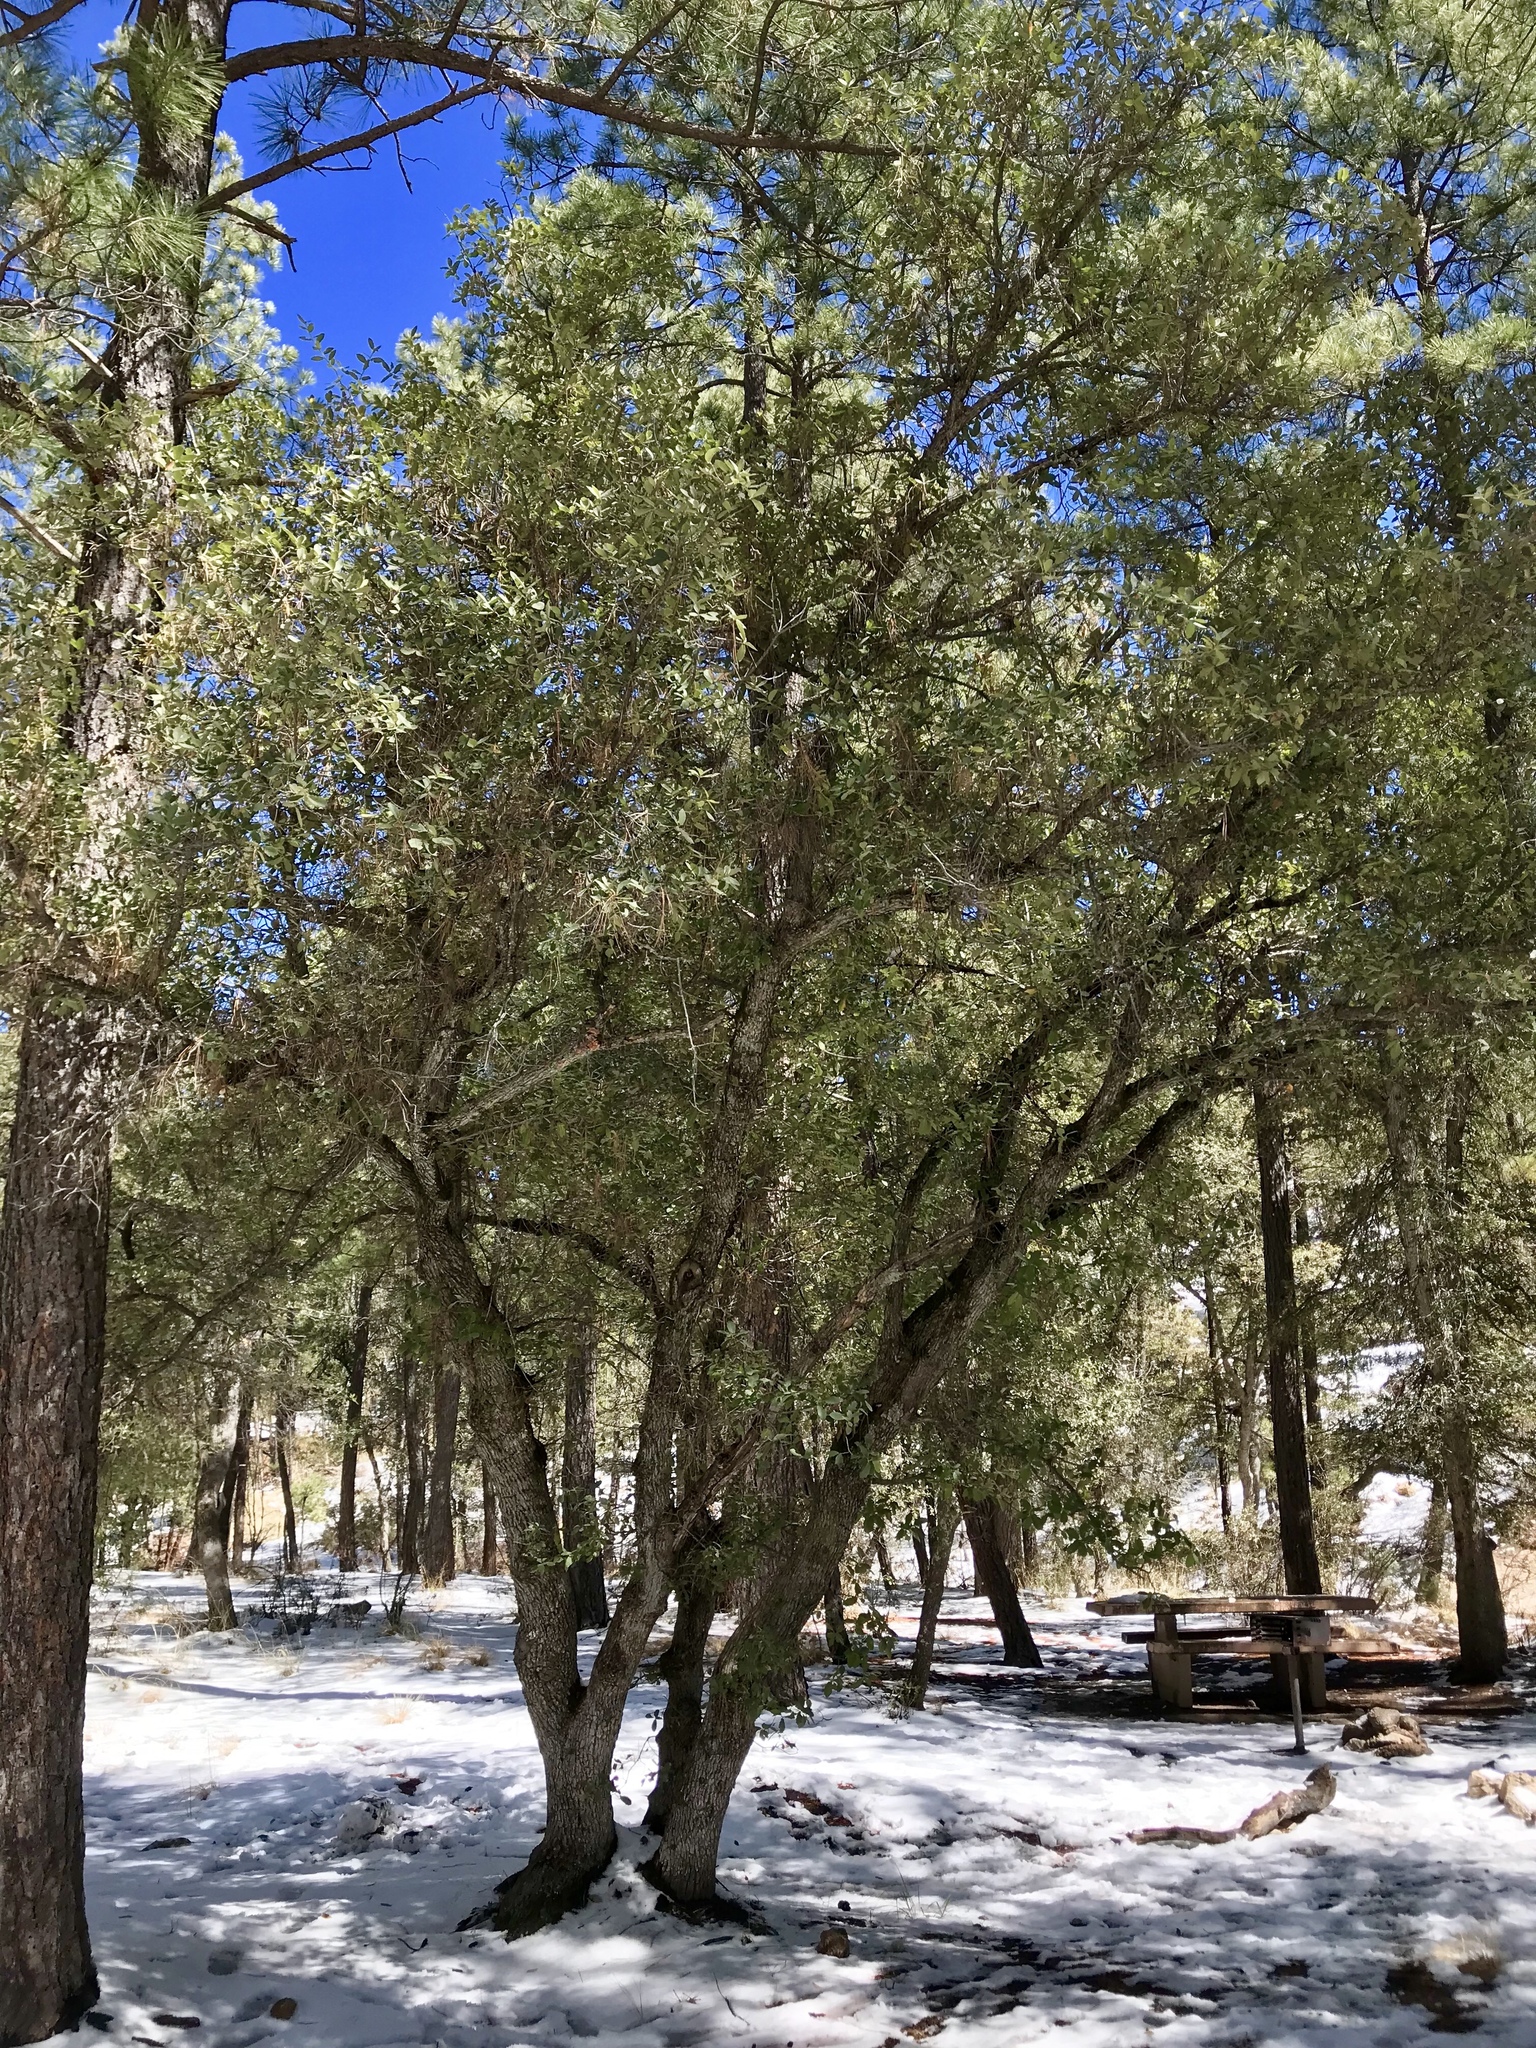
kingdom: Plantae
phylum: Tracheophyta
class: Magnoliopsida
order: Fagales
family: Fagaceae
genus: Quercus
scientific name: Quercus arizonica
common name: Arizona white oak
